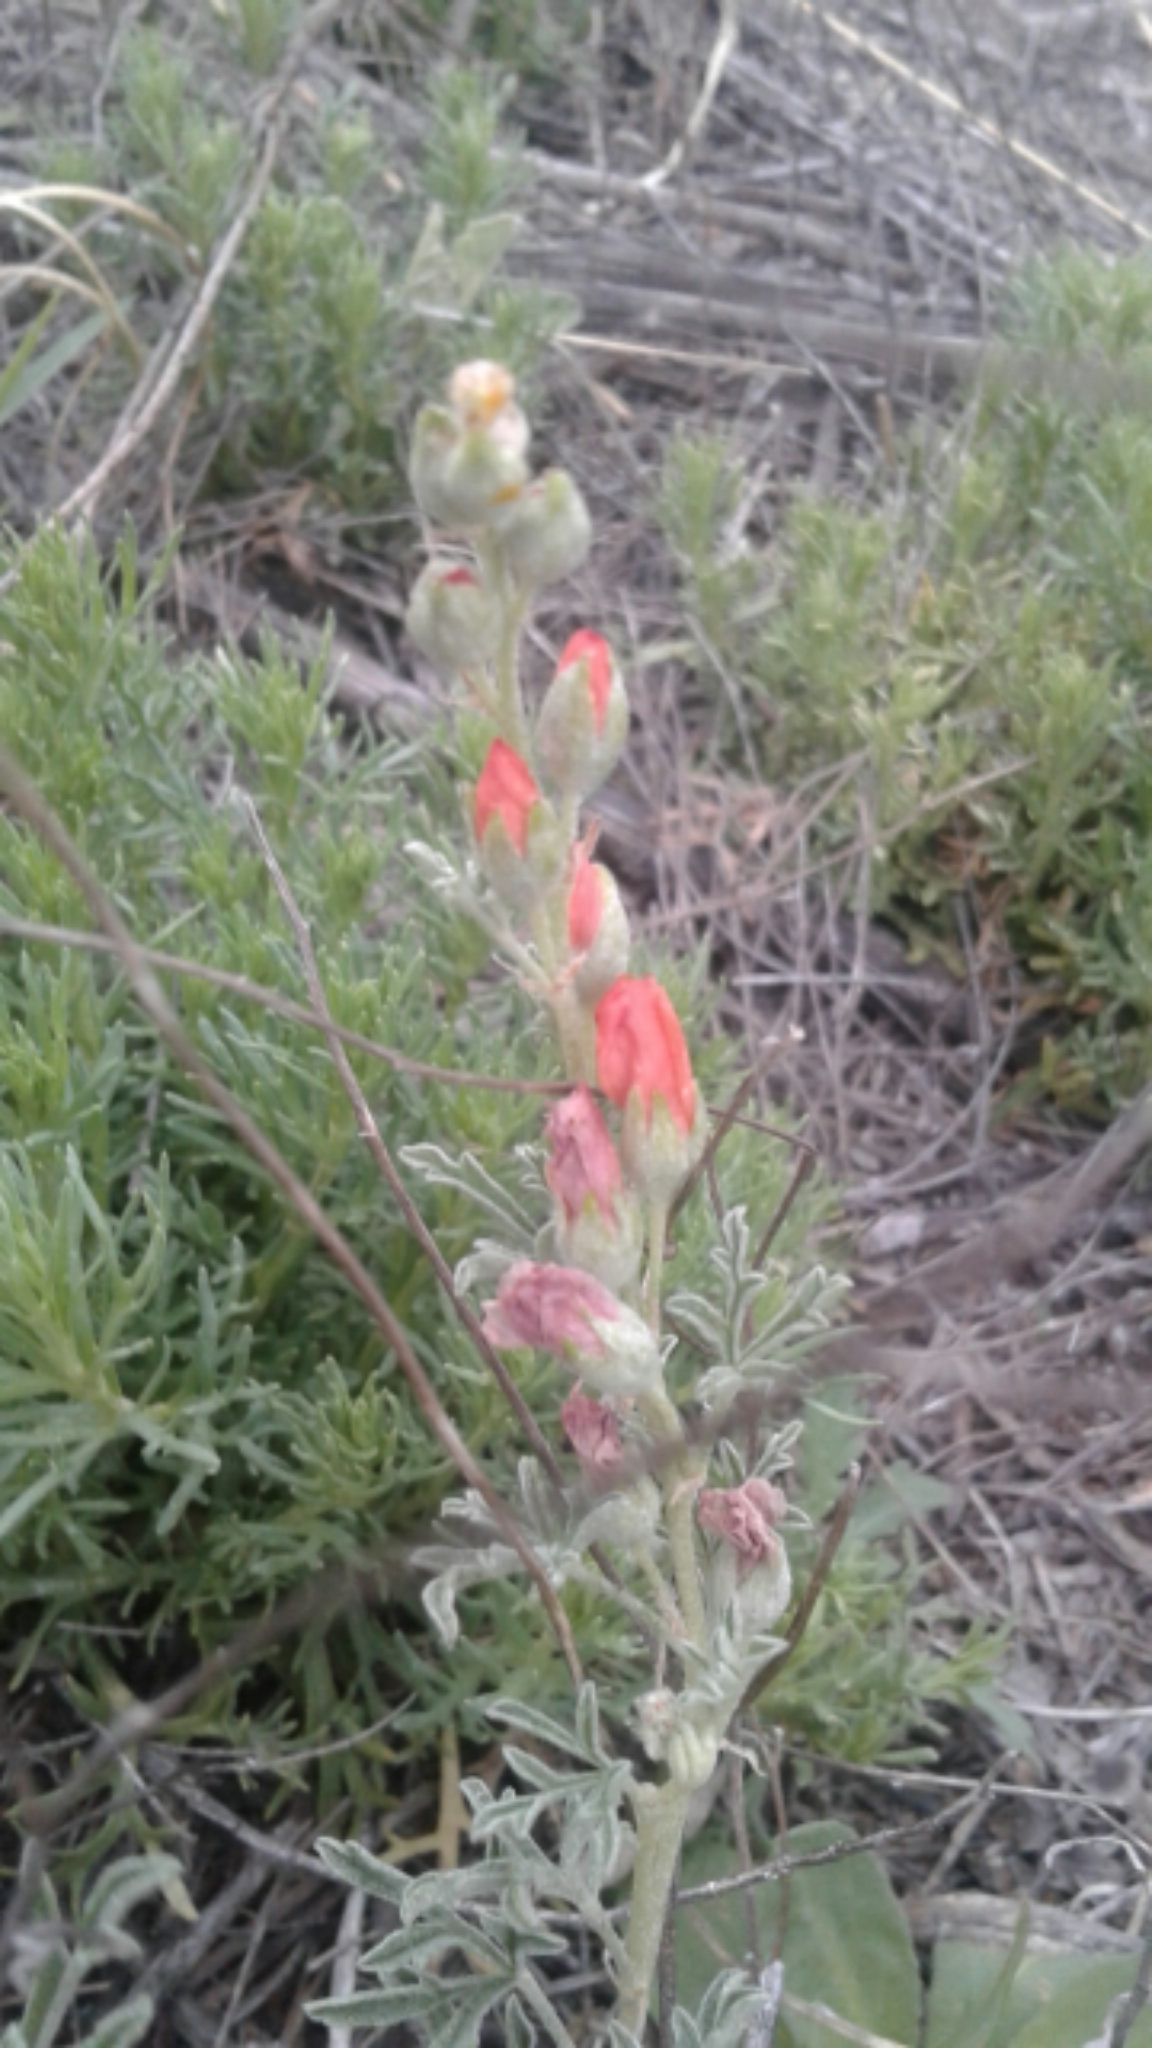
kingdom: Plantae
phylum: Tracheophyta
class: Magnoliopsida
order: Malvales
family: Malvaceae
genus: Sphaeralcea
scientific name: Sphaeralcea coccinea
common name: Moss-rose
